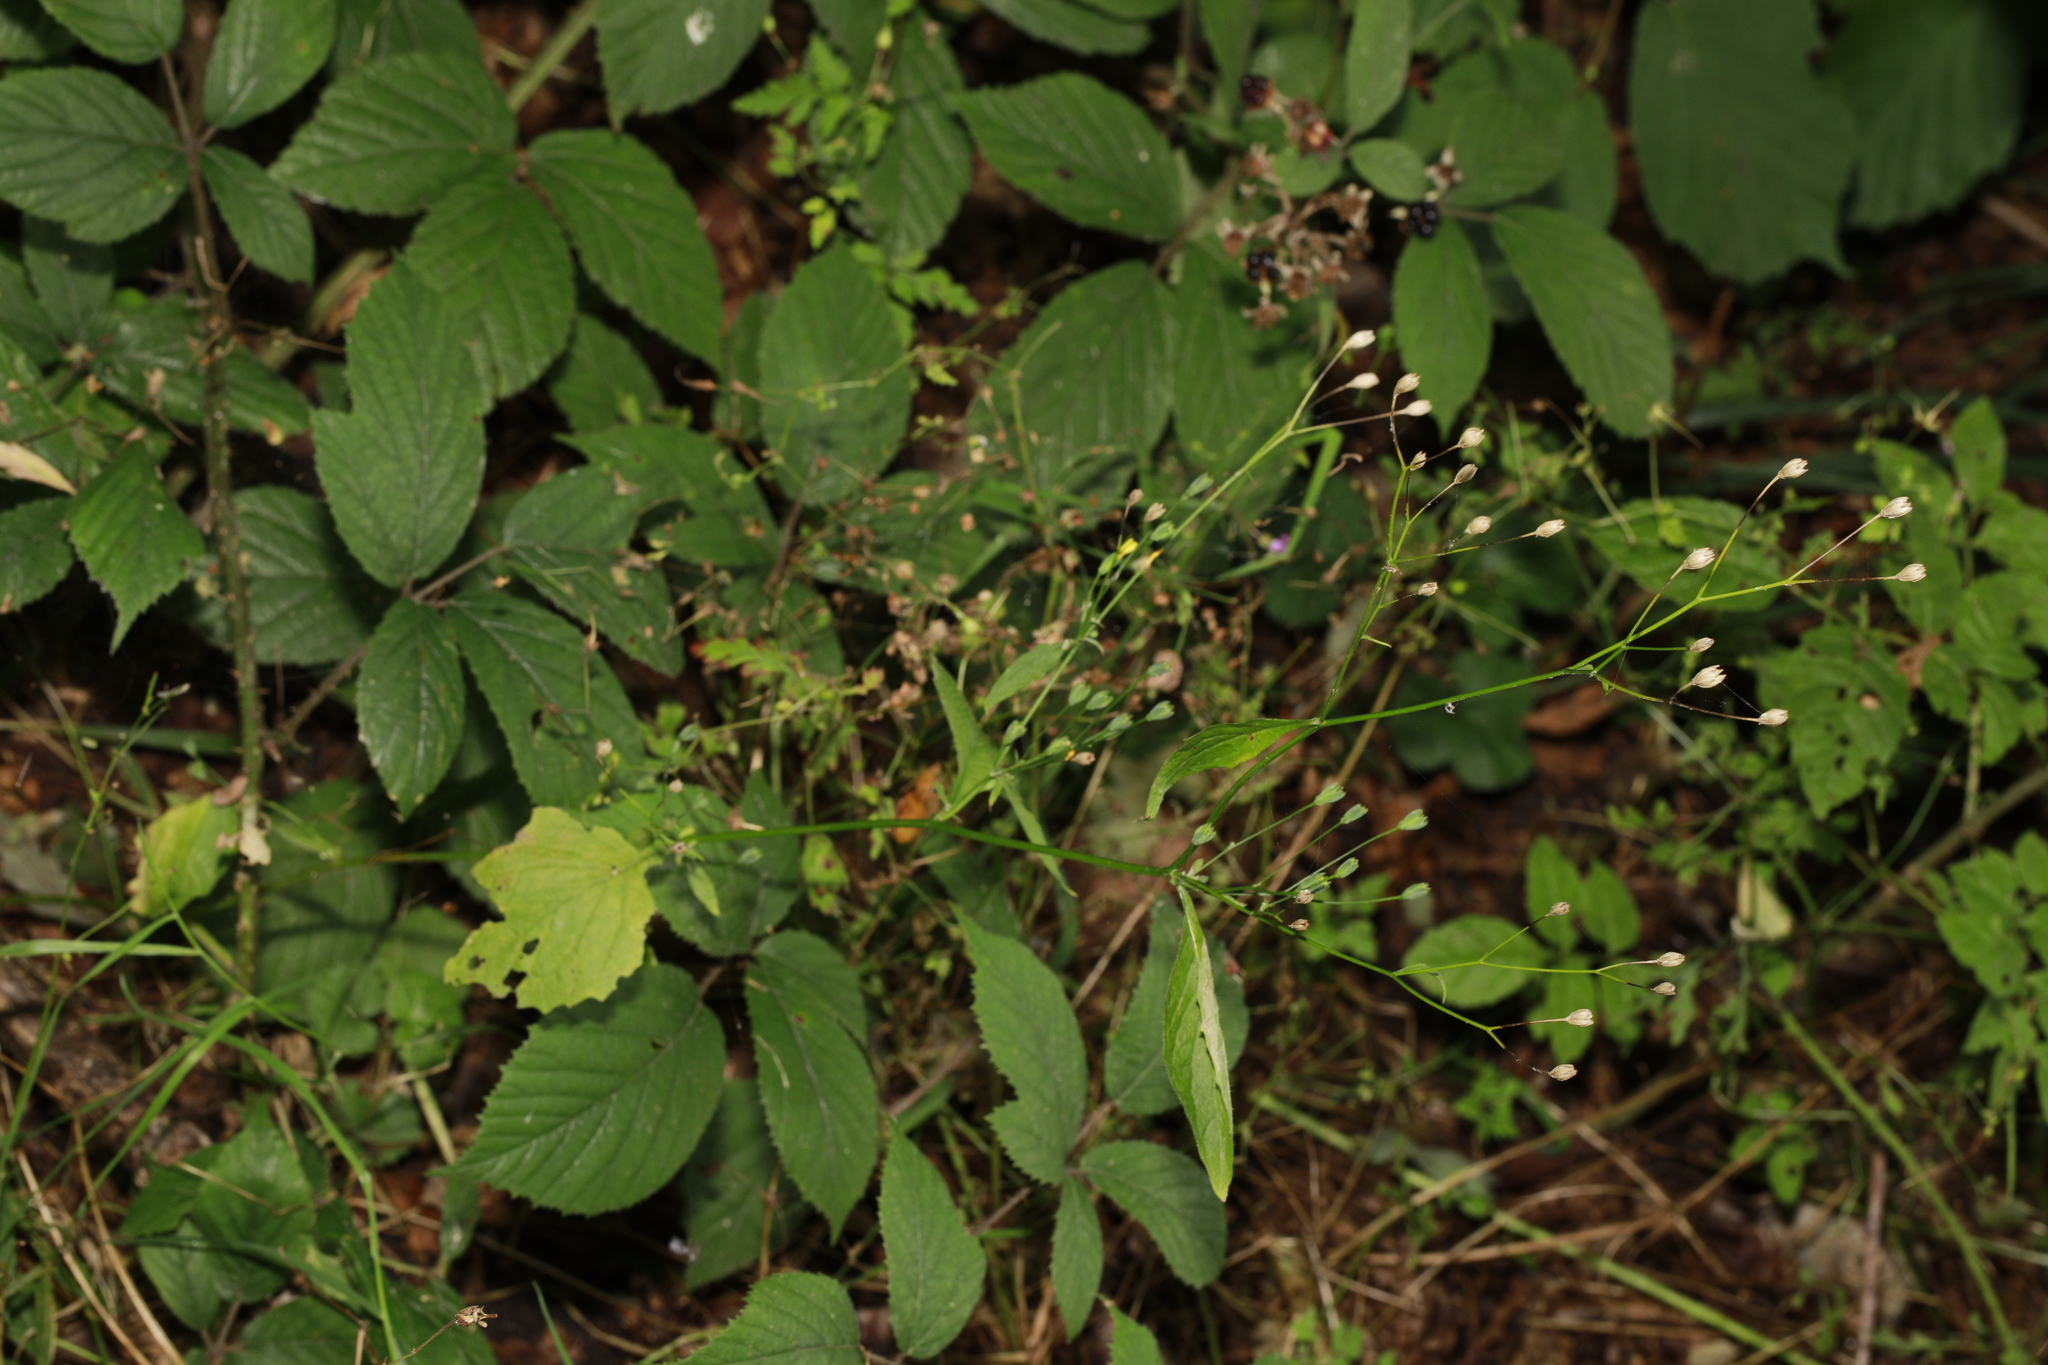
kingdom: Plantae
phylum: Tracheophyta
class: Magnoliopsida
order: Asterales
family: Asteraceae
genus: Lapsana
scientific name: Lapsana communis
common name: Nipplewort
